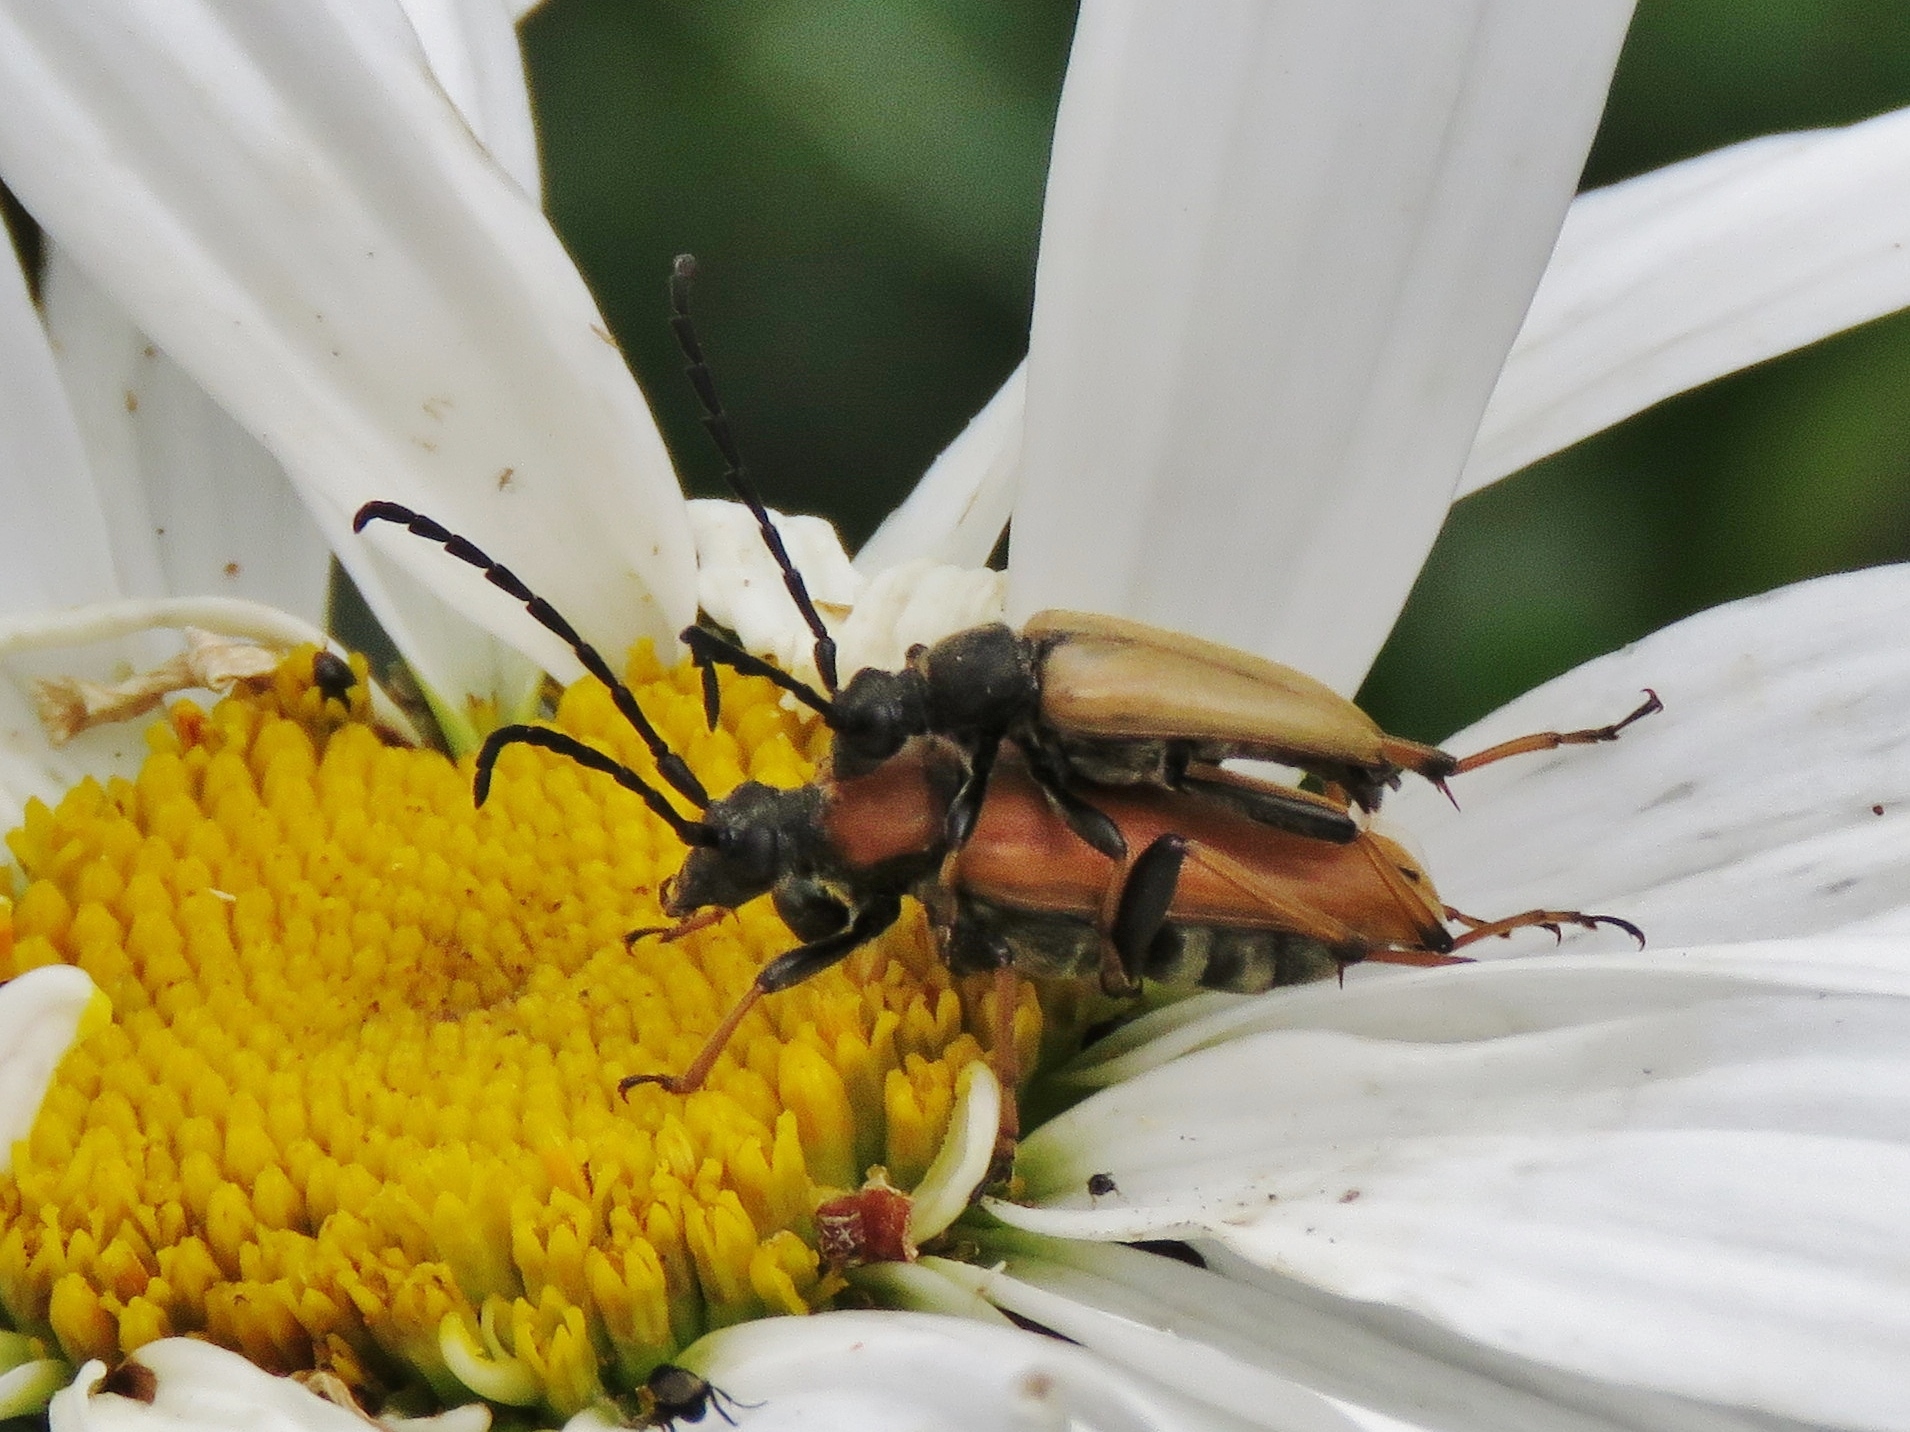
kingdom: Animalia
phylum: Arthropoda
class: Insecta
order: Coleoptera
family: Cerambycidae
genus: Stictoleptura
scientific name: Stictoleptura rubra
